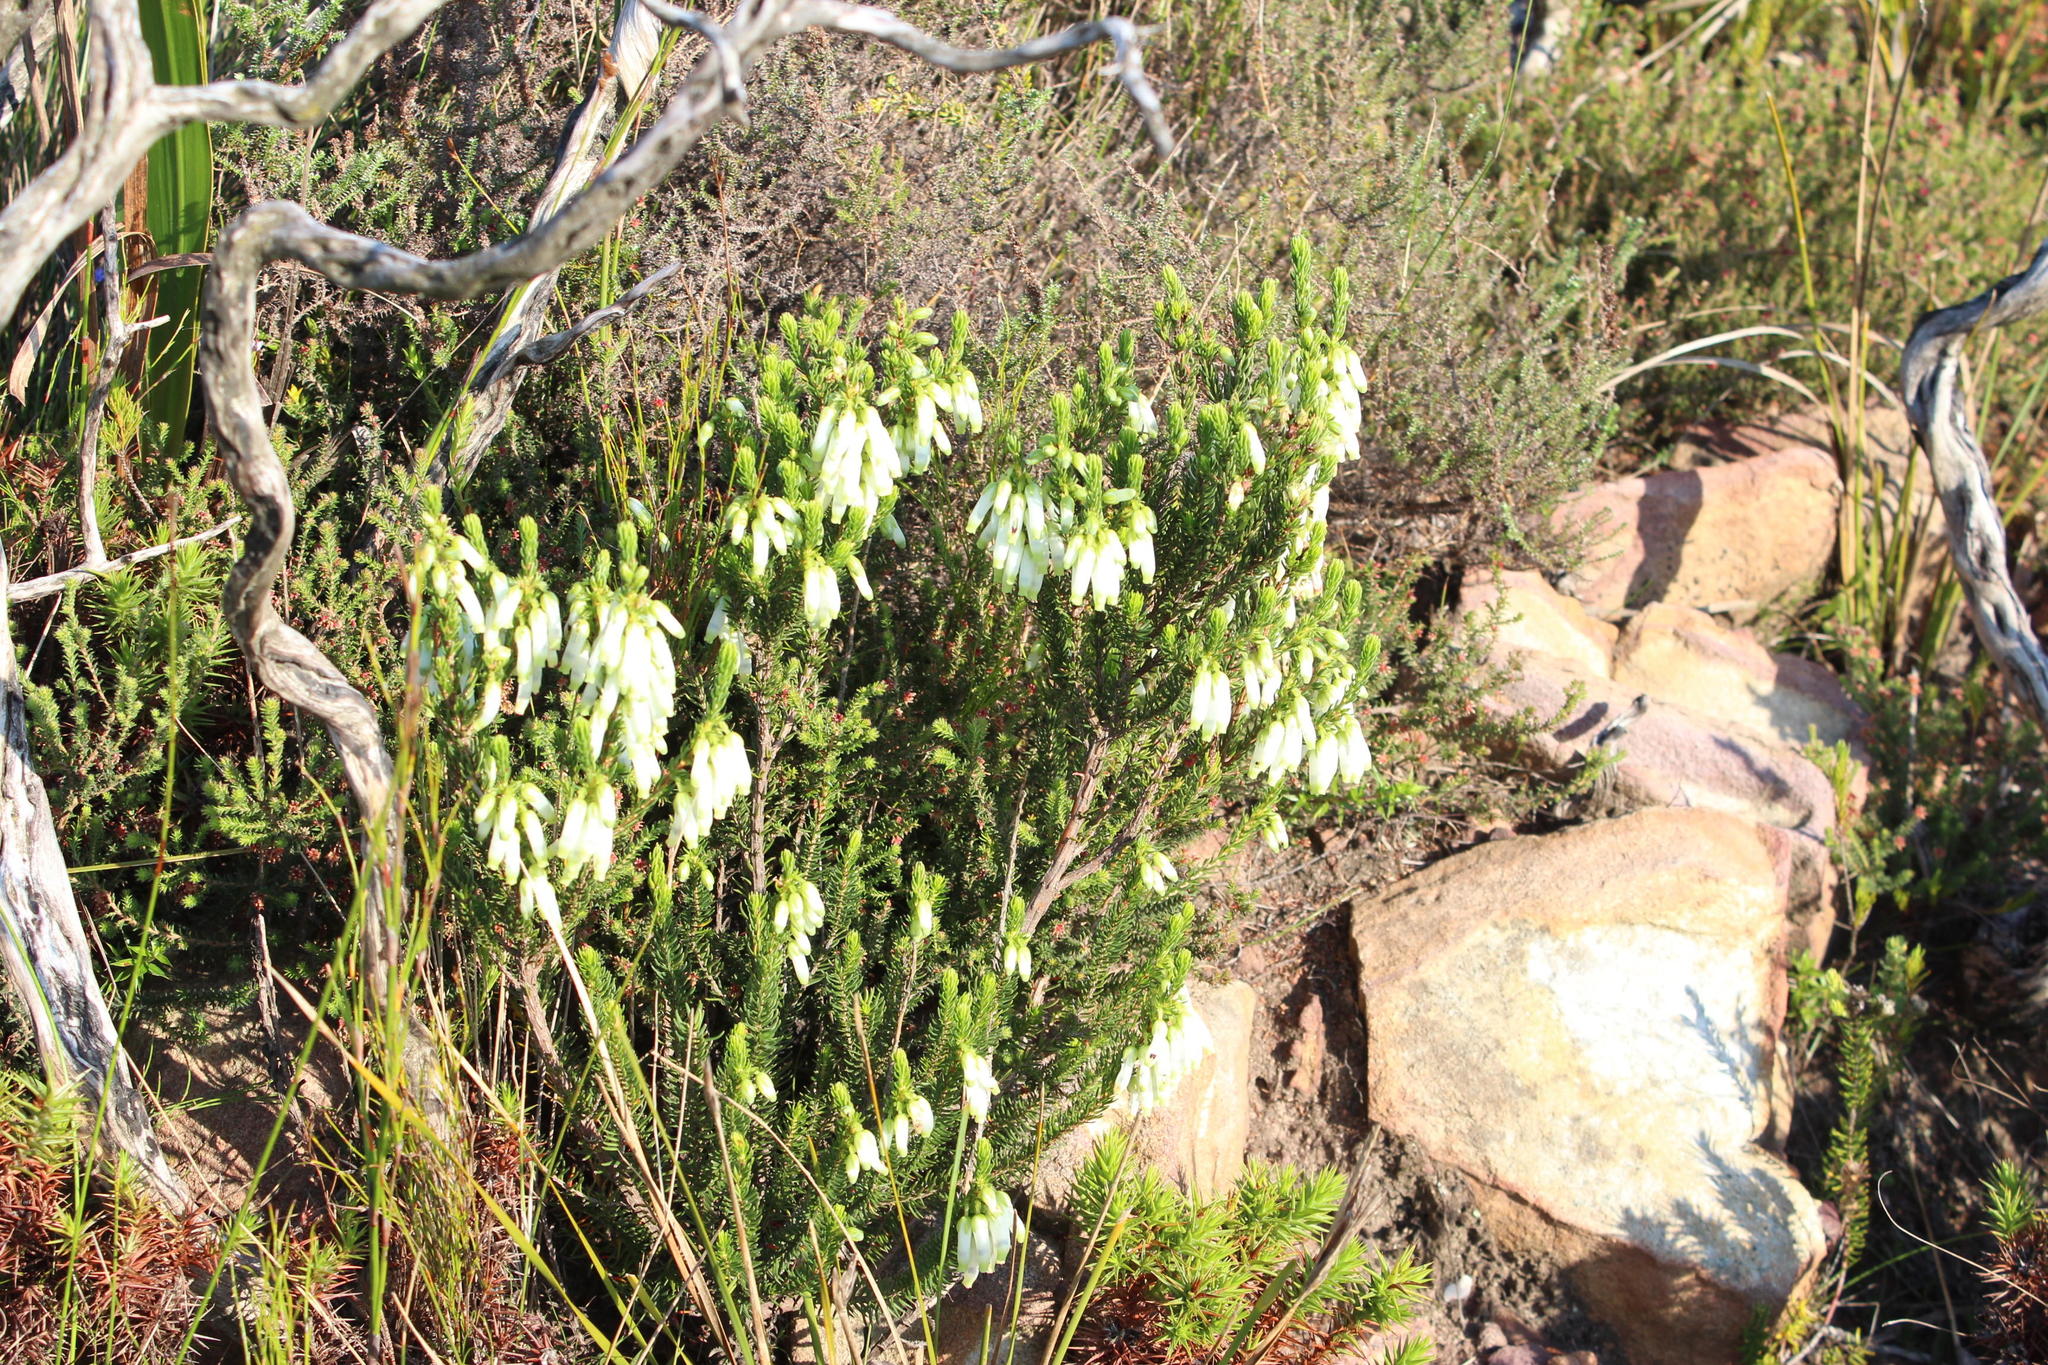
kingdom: Plantae
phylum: Tracheophyta
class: Magnoliopsida
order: Ericales
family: Ericaceae
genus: Erica
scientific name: Erica mammosa
